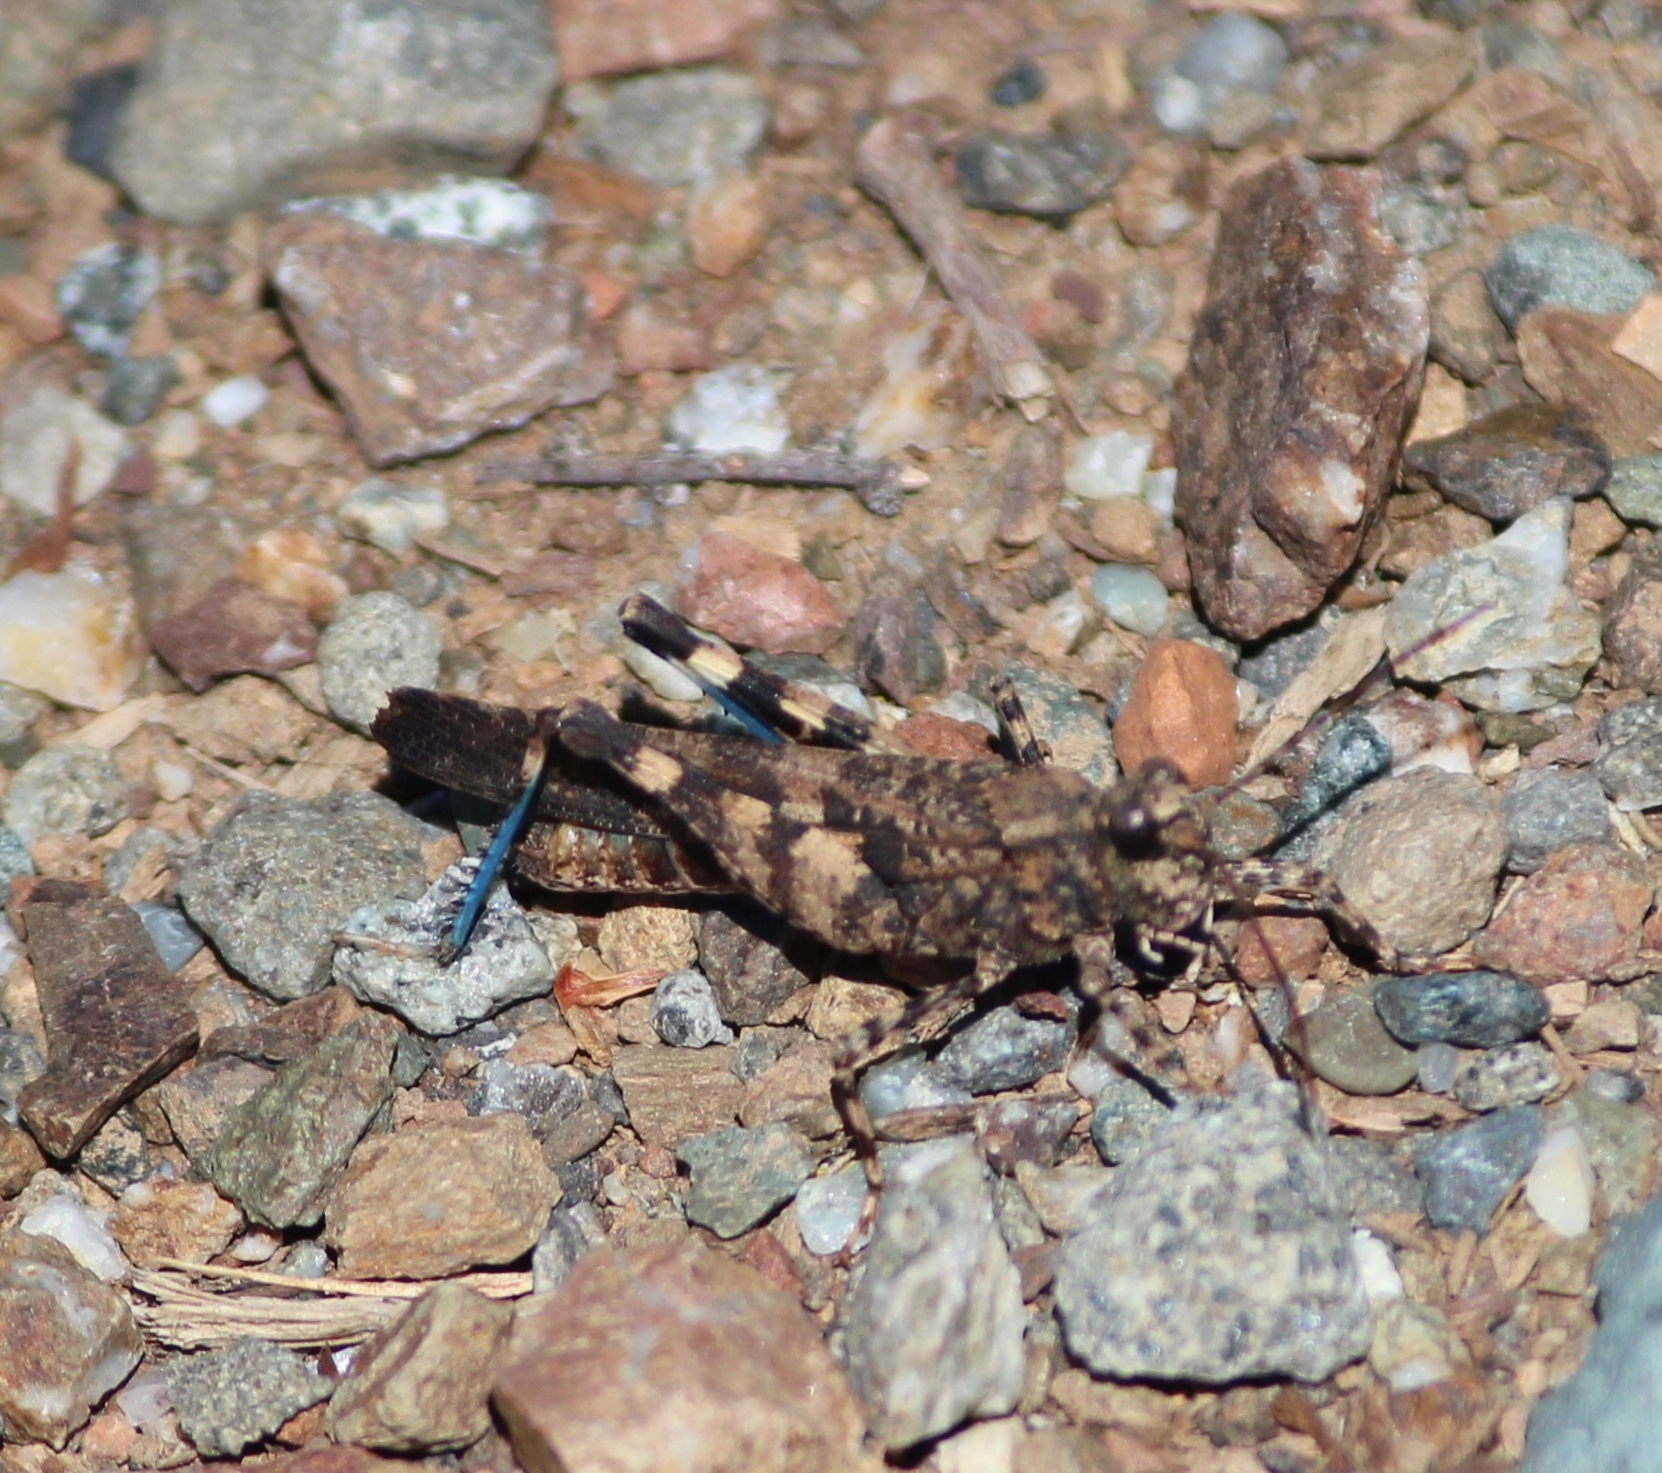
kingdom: Animalia
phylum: Arthropoda
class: Insecta
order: Orthoptera
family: Acrididae
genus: Trimerotropis
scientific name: Trimerotropis fontana
